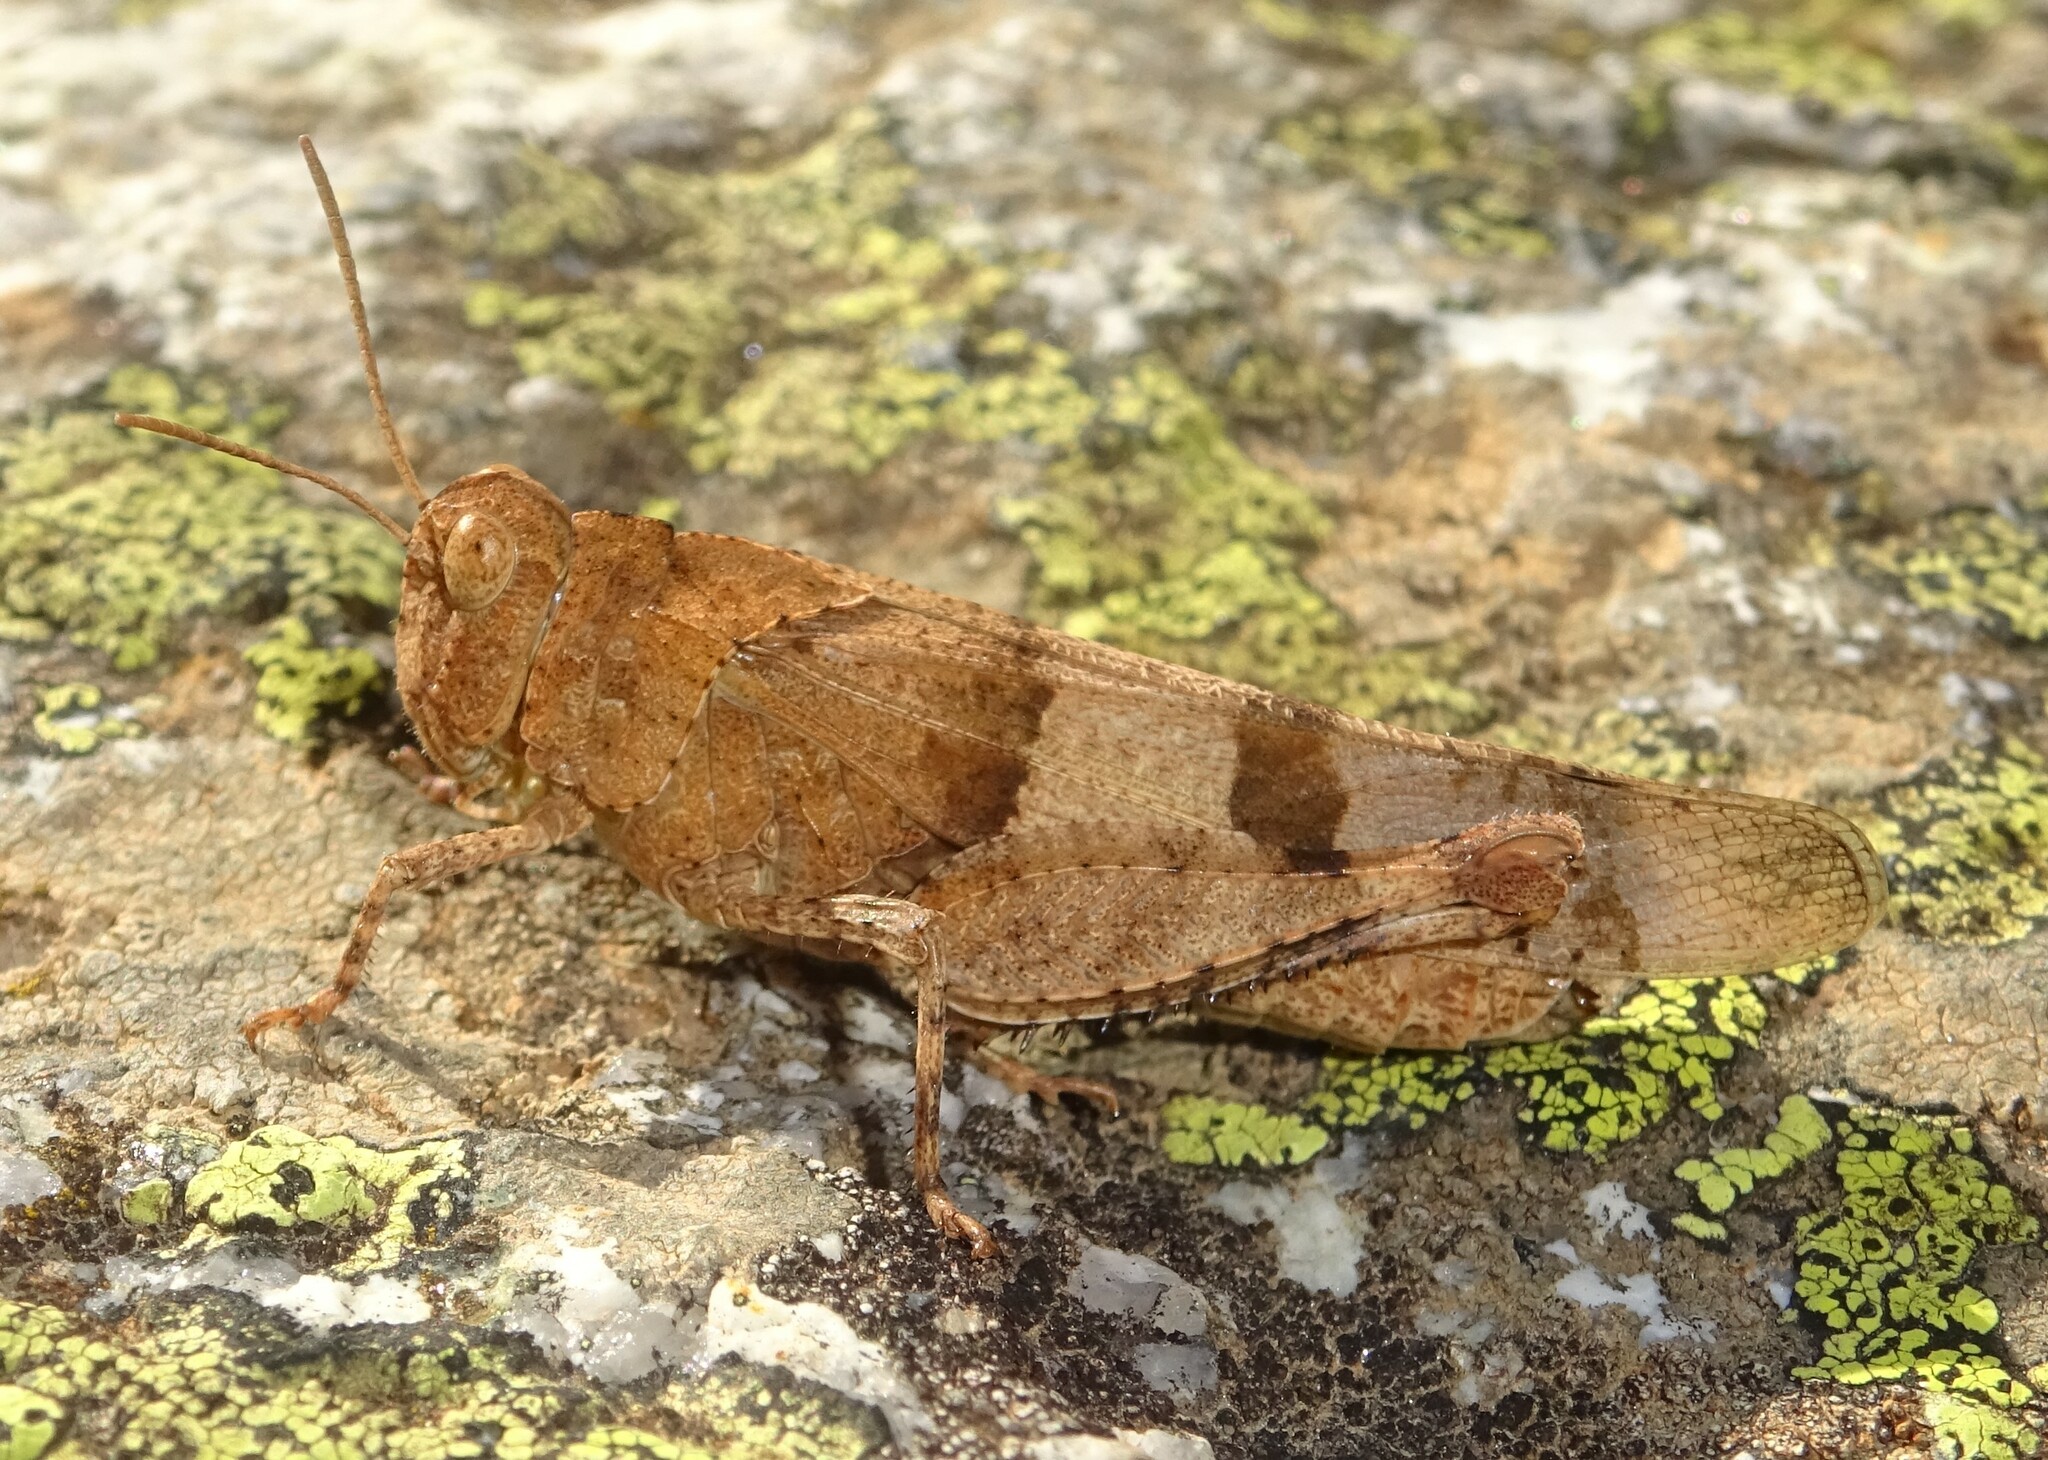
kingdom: Animalia
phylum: Arthropoda
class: Insecta
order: Orthoptera
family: Acrididae
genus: Oedipoda
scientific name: Oedipoda caerulescens
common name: Blue-winged grasshopper
